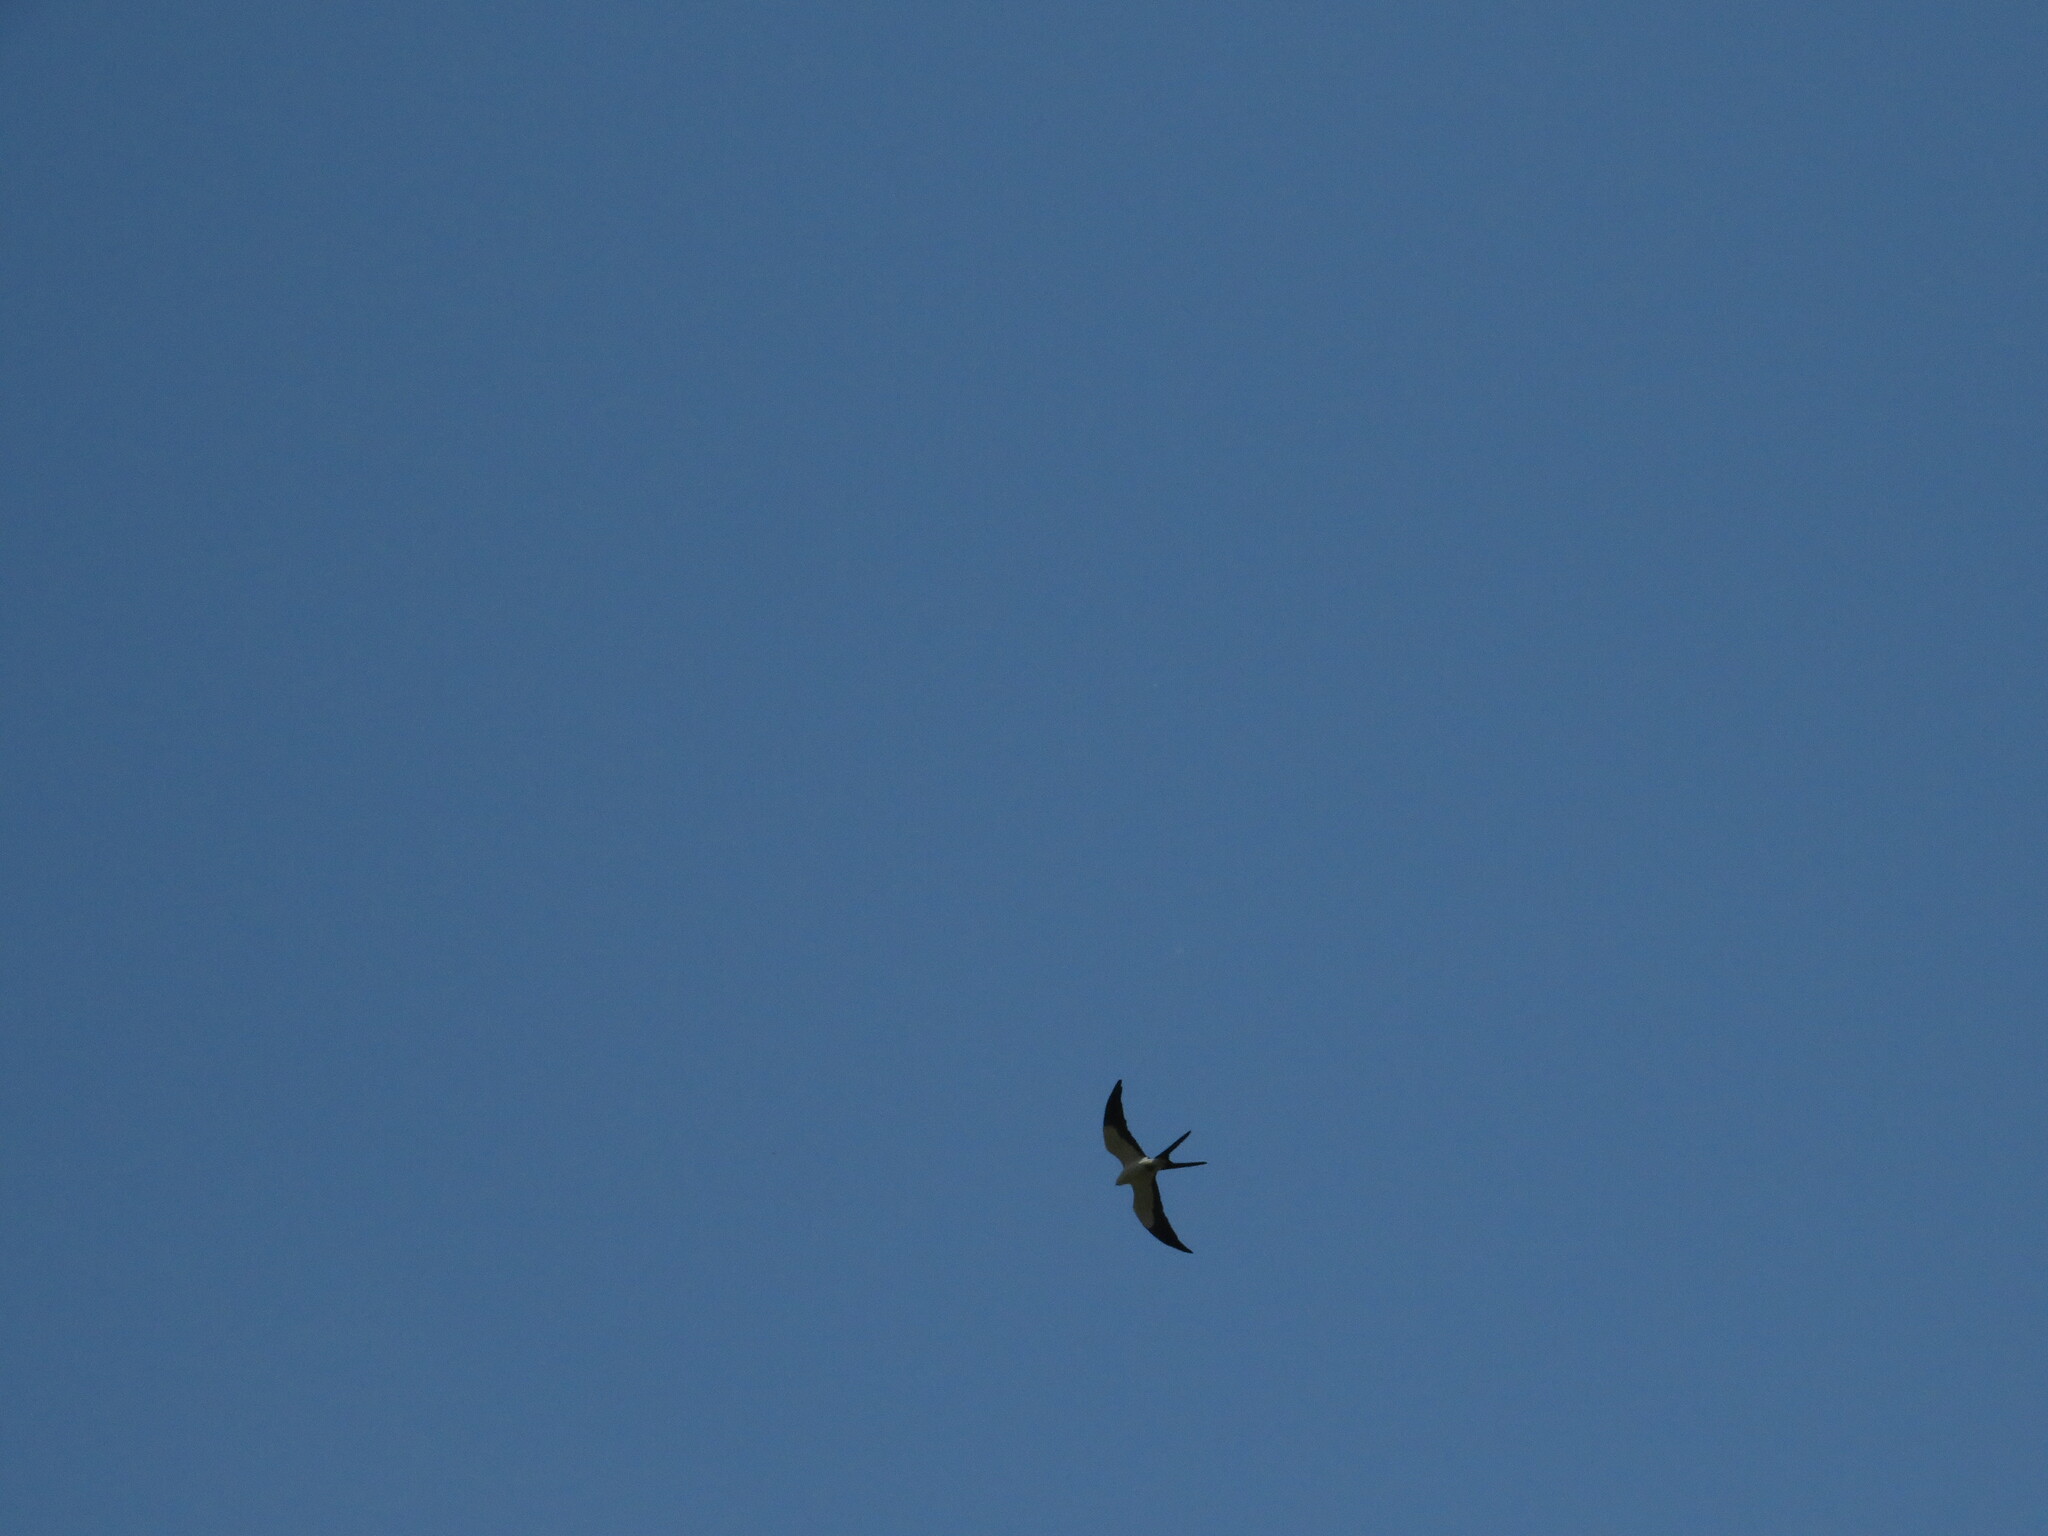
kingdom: Animalia
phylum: Chordata
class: Aves
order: Accipitriformes
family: Accipitridae
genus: Elanoides
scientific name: Elanoides forficatus
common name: Swallow-tailed kite
